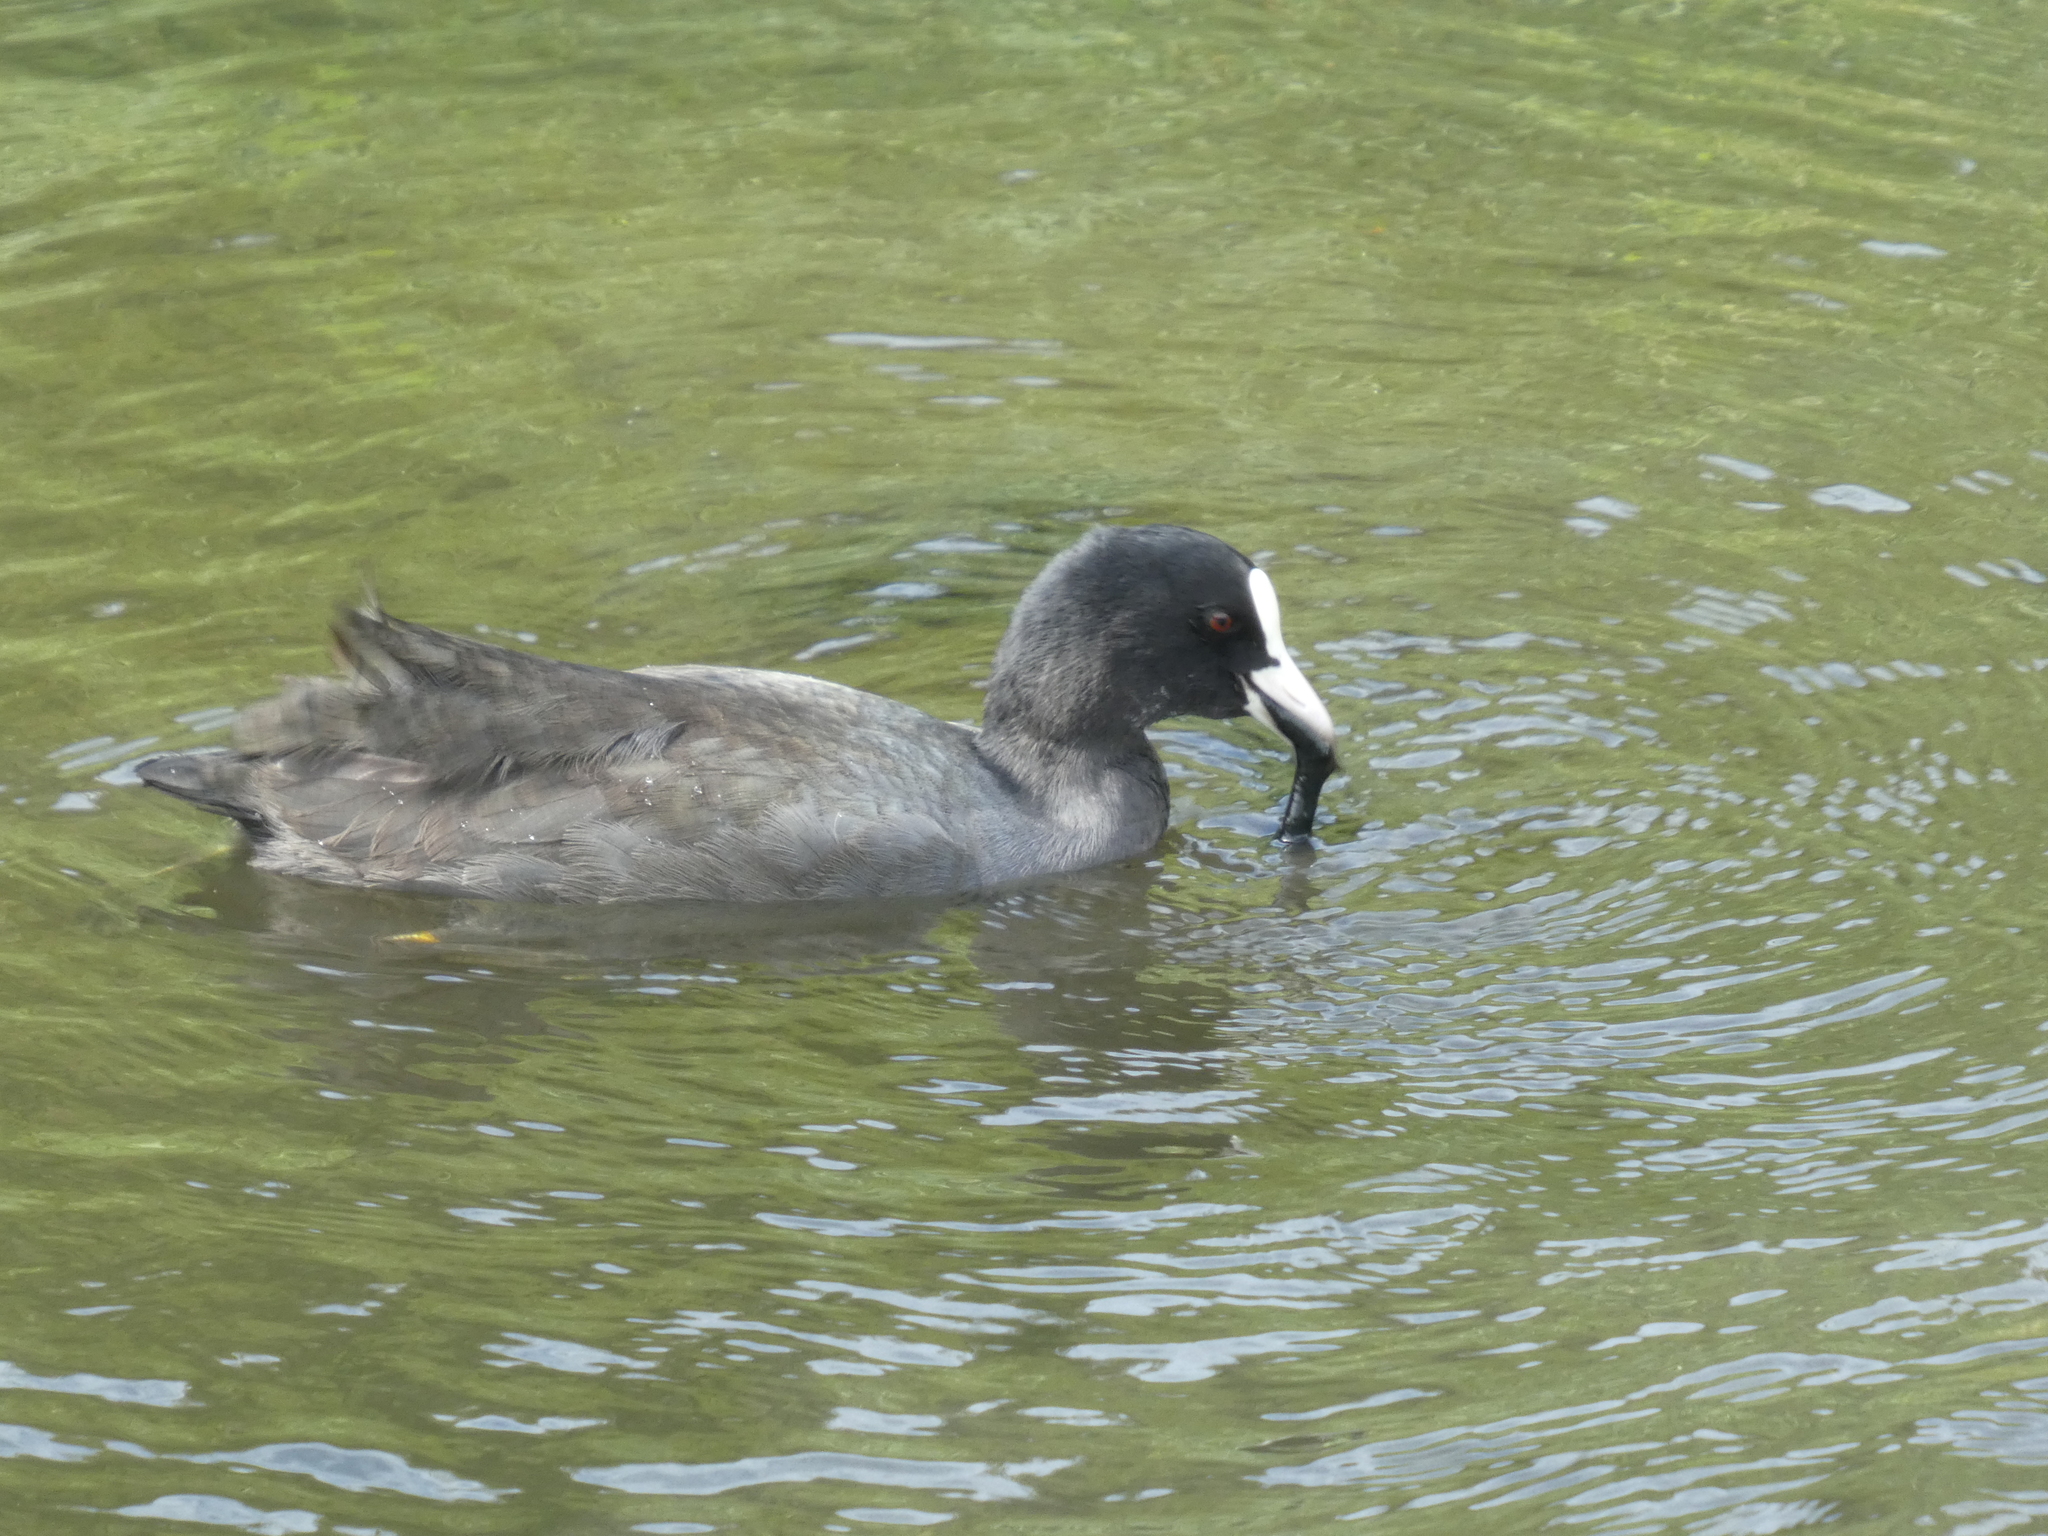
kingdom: Animalia
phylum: Chordata
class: Aves
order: Gruiformes
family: Rallidae
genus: Fulica
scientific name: Fulica atra
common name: Eurasian coot
